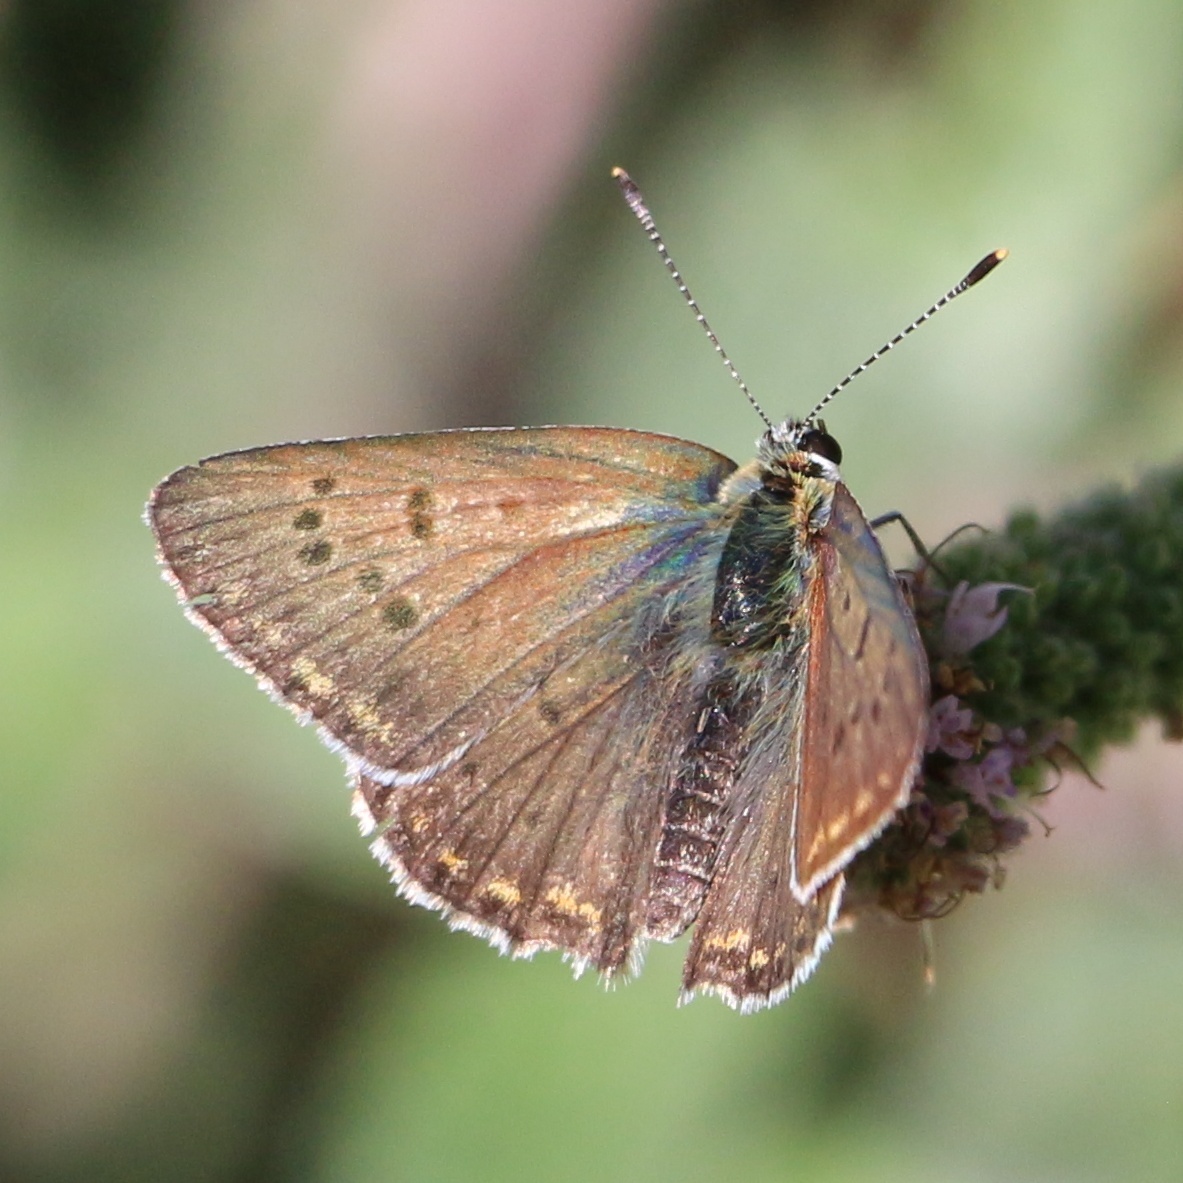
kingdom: Animalia
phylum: Arthropoda
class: Insecta
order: Lepidoptera
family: Lycaenidae
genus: Loweia
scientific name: Loweia tityrus
